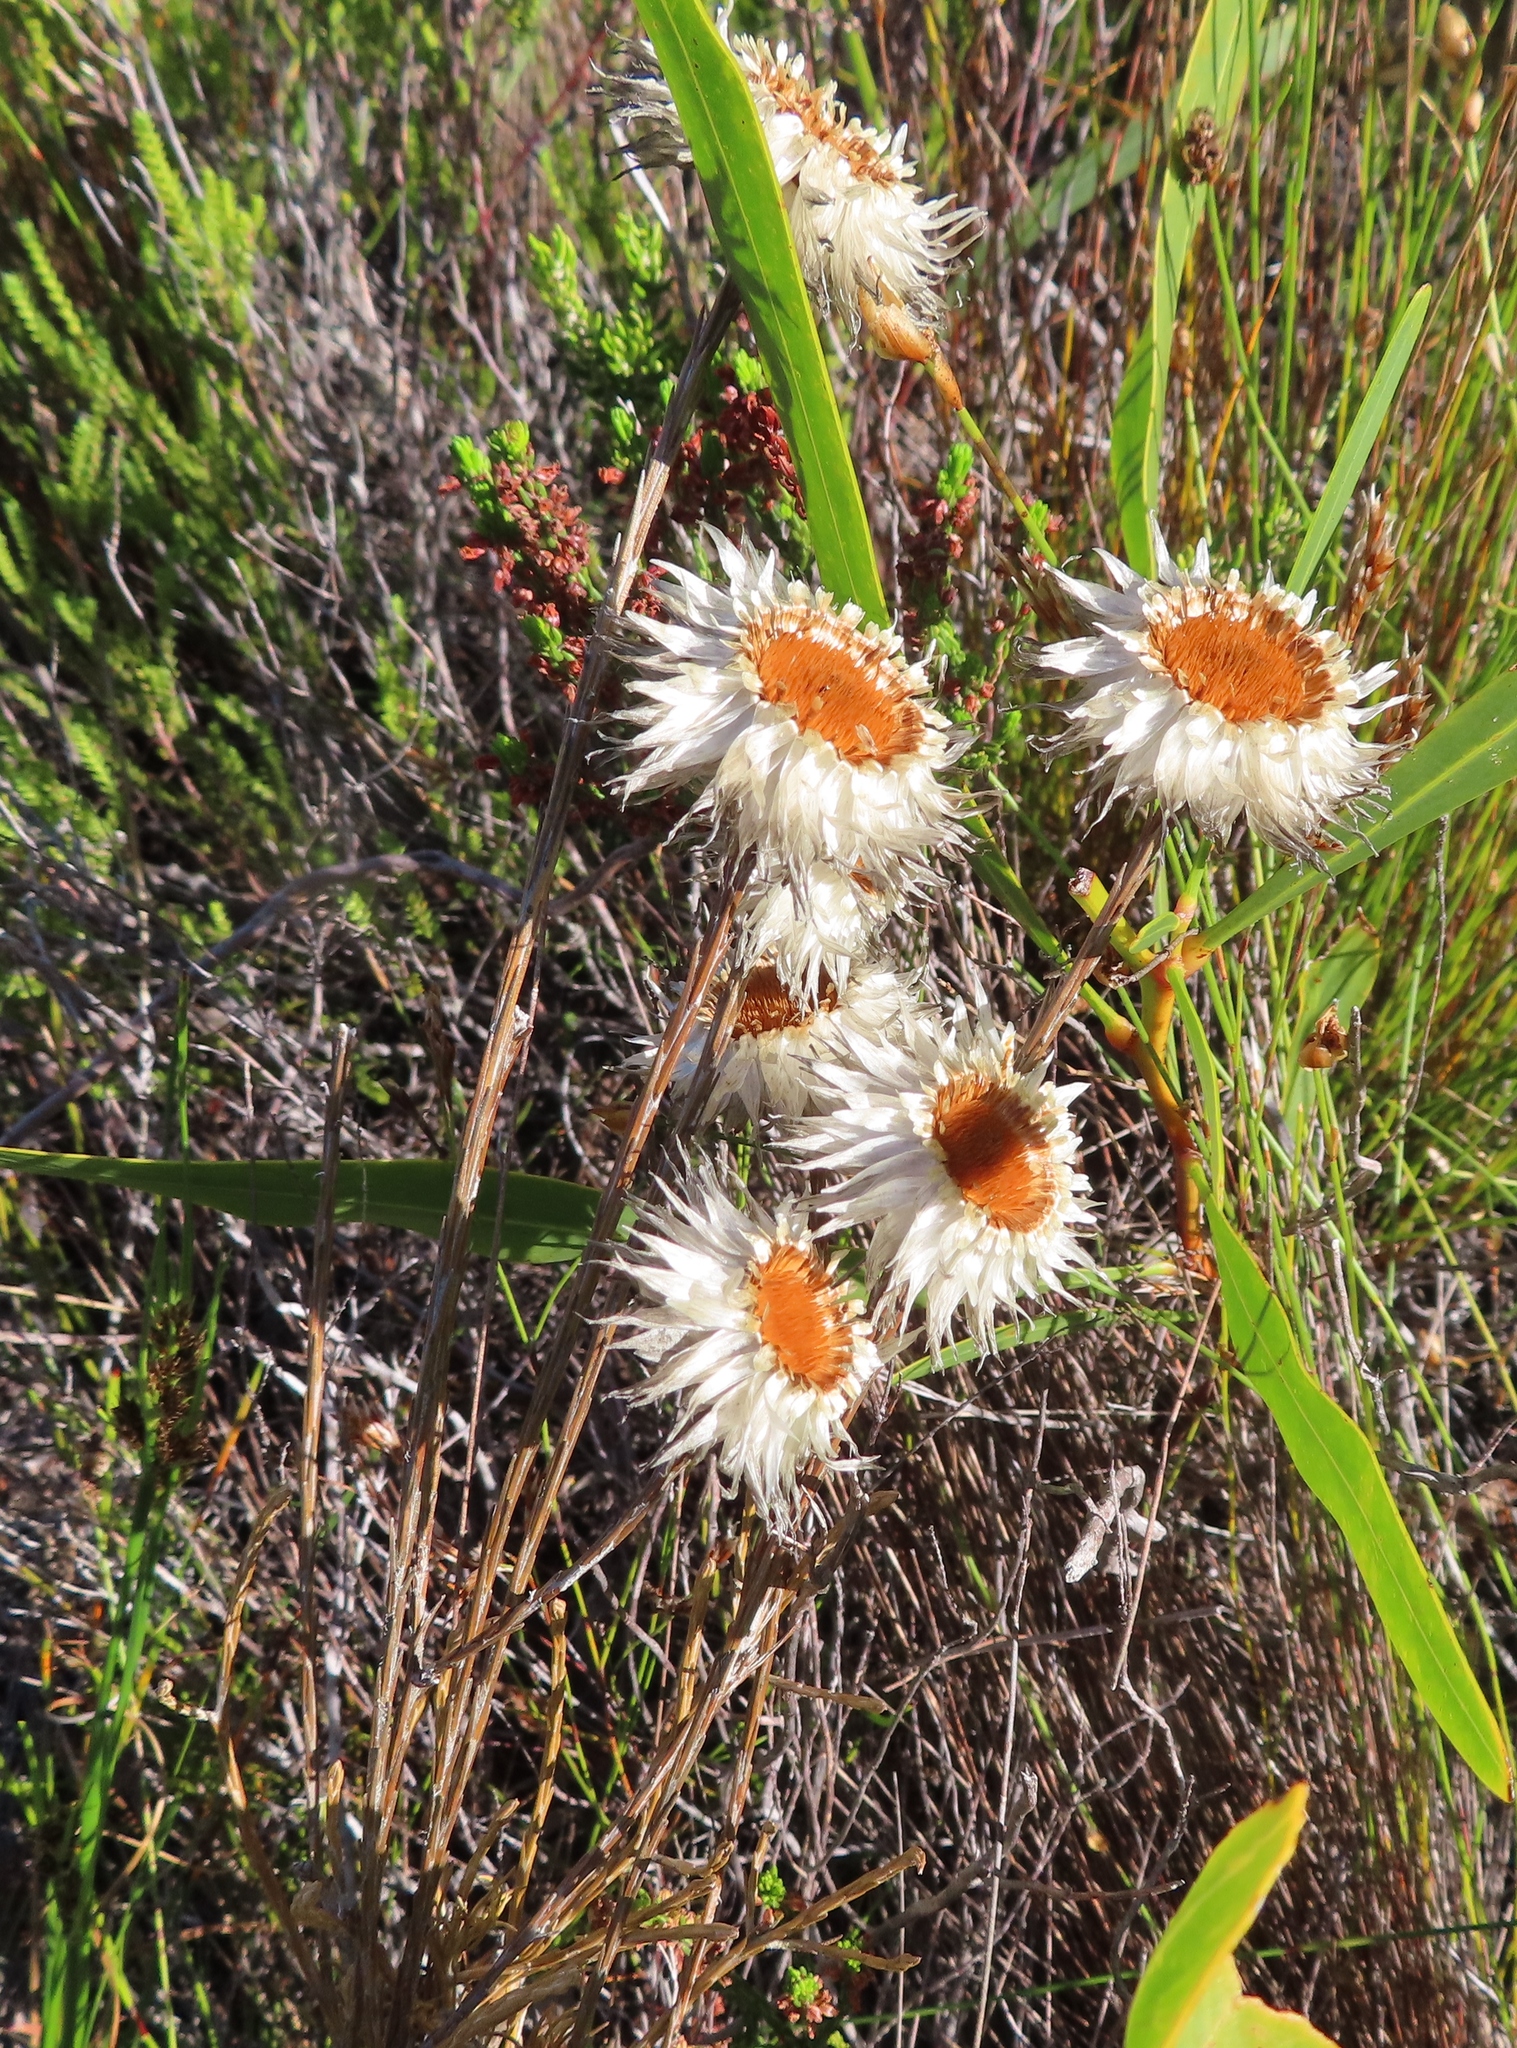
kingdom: Plantae
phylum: Tracheophyta
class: Magnoliopsida
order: Asterales
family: Asteraceae
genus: Edmondia
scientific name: Edmondia sesamoides
